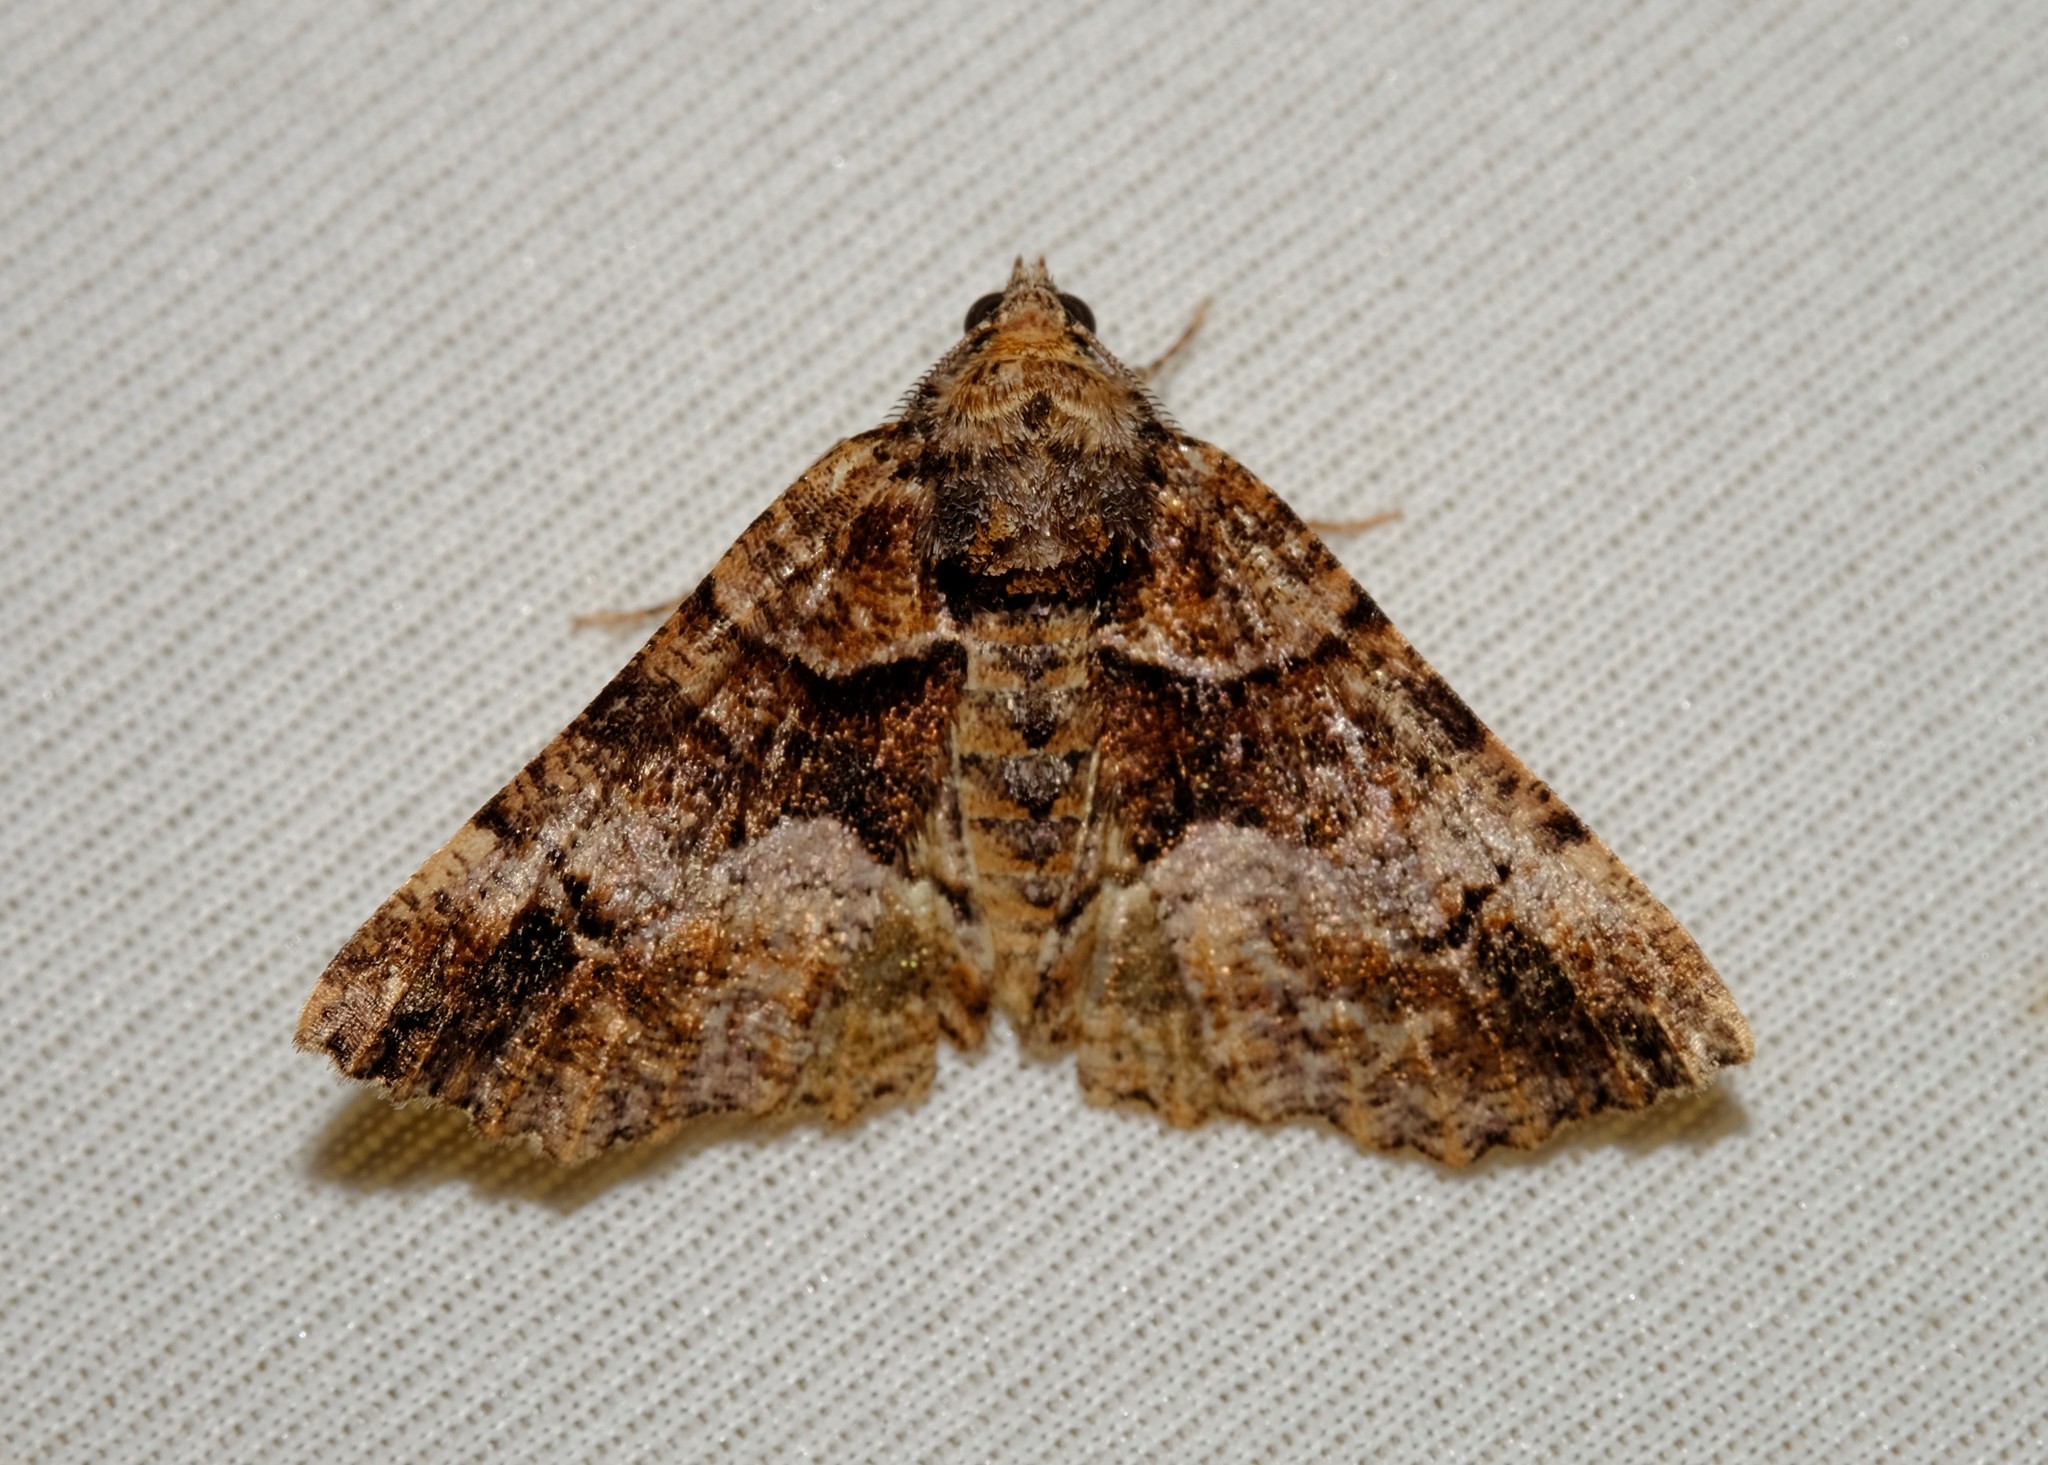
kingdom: Animalia
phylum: Arthropoda
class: Insecta
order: Lepidoptera
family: Geometridae
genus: Gastrina
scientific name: Gastrina cristaria
